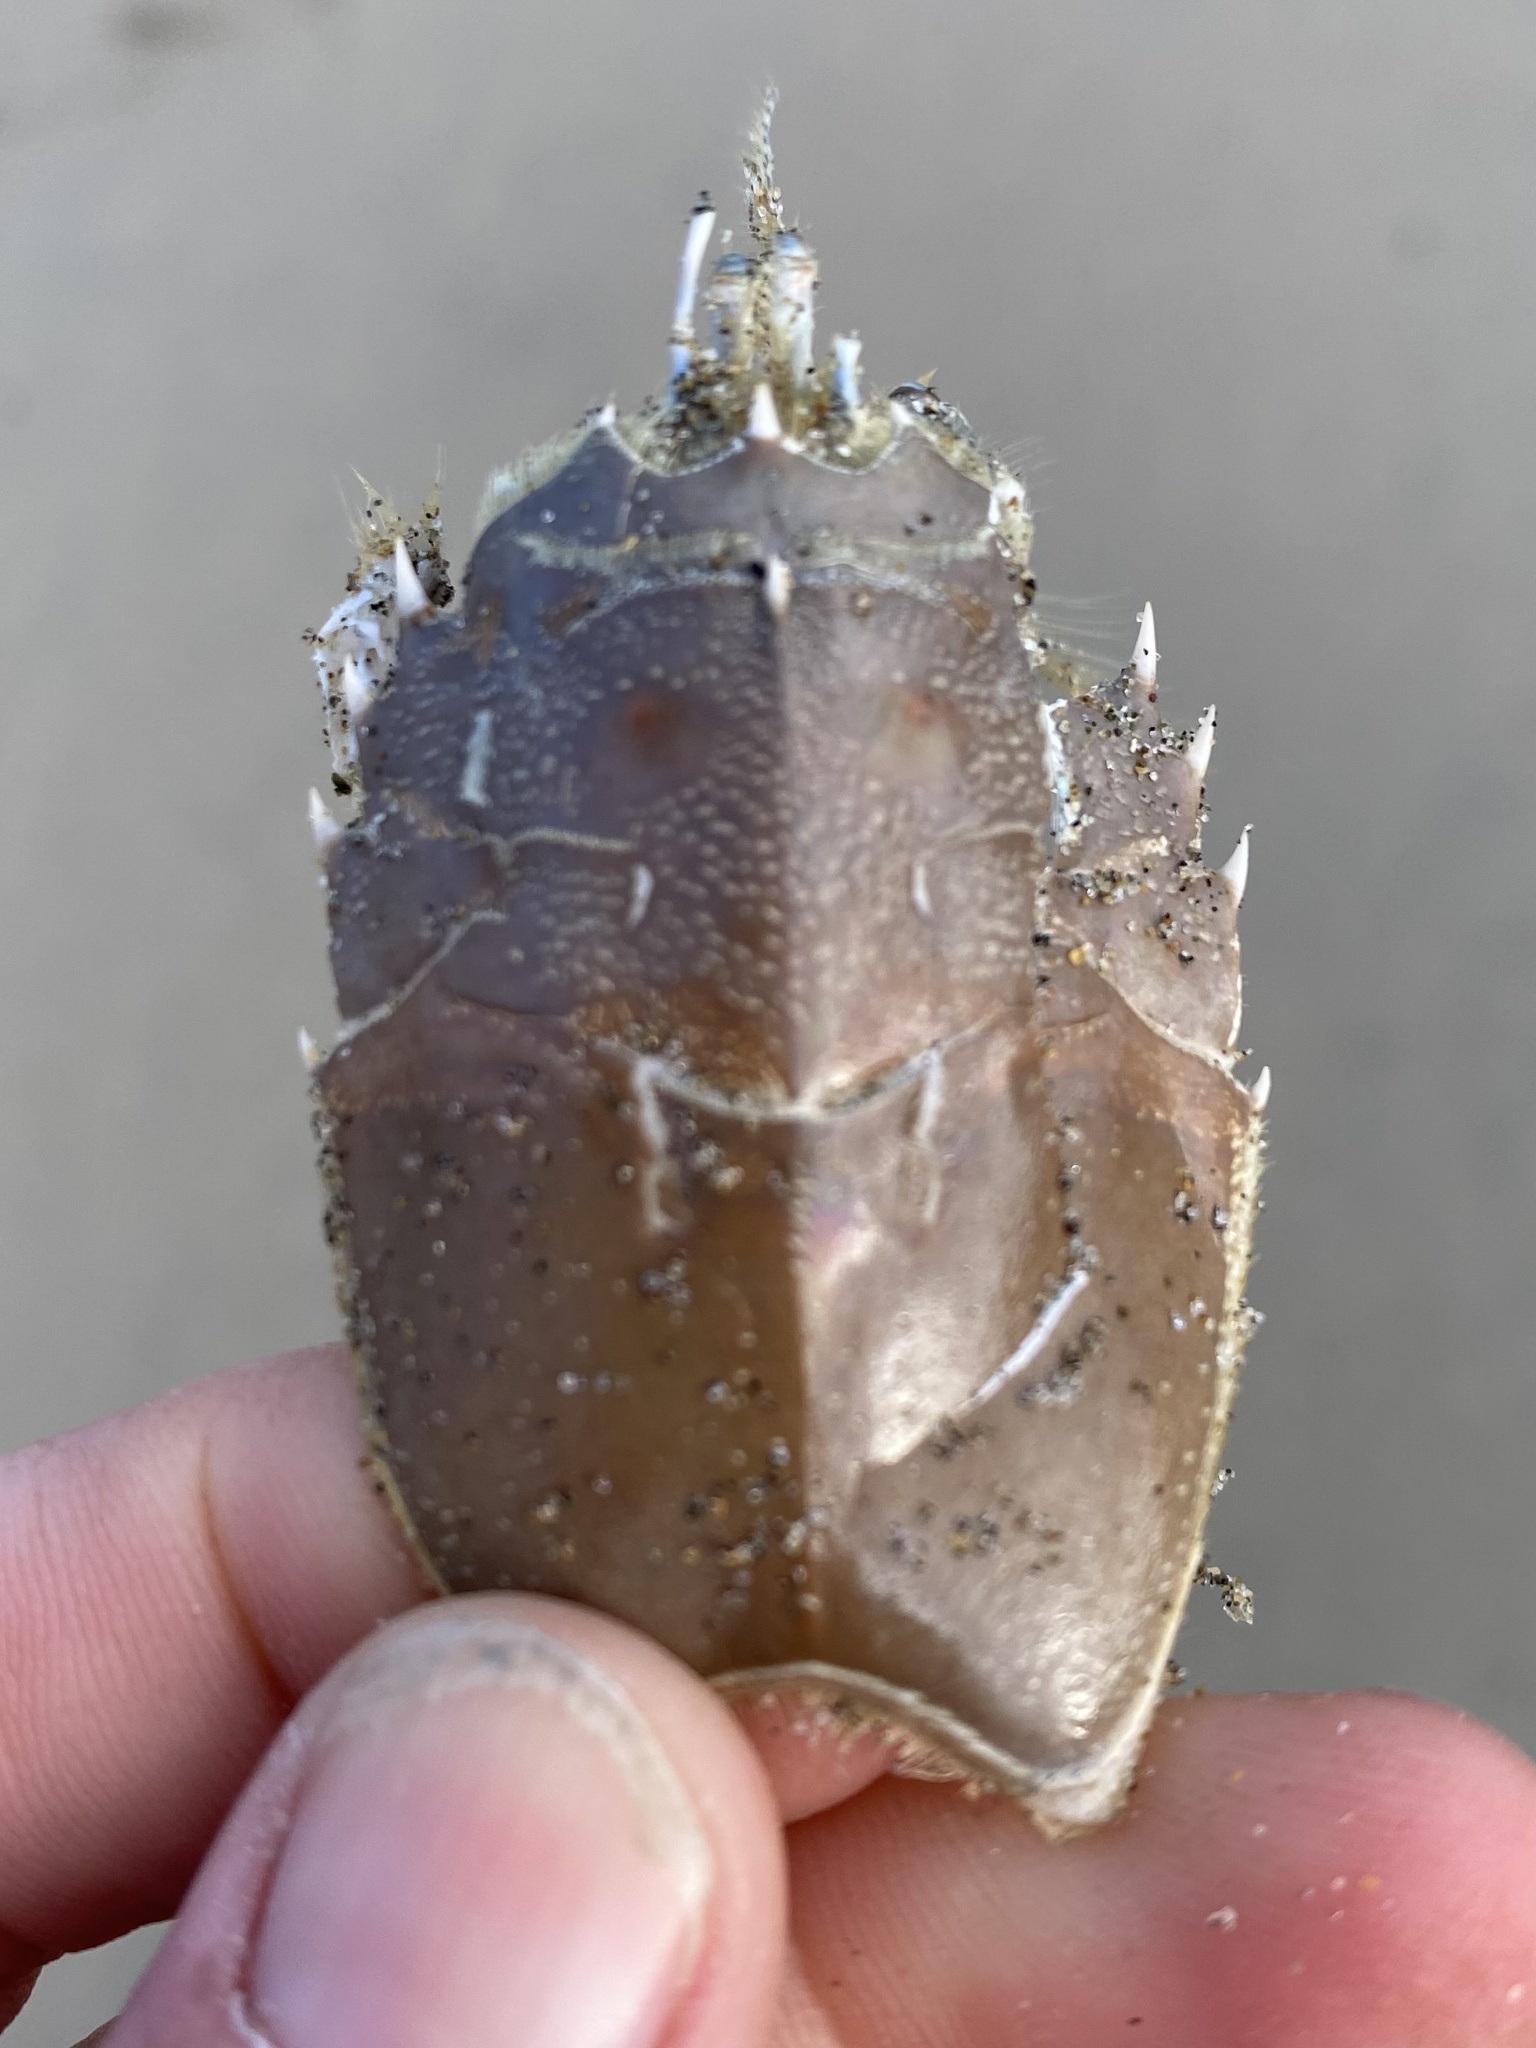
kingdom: Animalia
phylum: Arthropoda
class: Malacostraca
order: Decapoda
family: Blepharipodidae
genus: Blepharipoda
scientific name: Blepharipoda occidentalis
